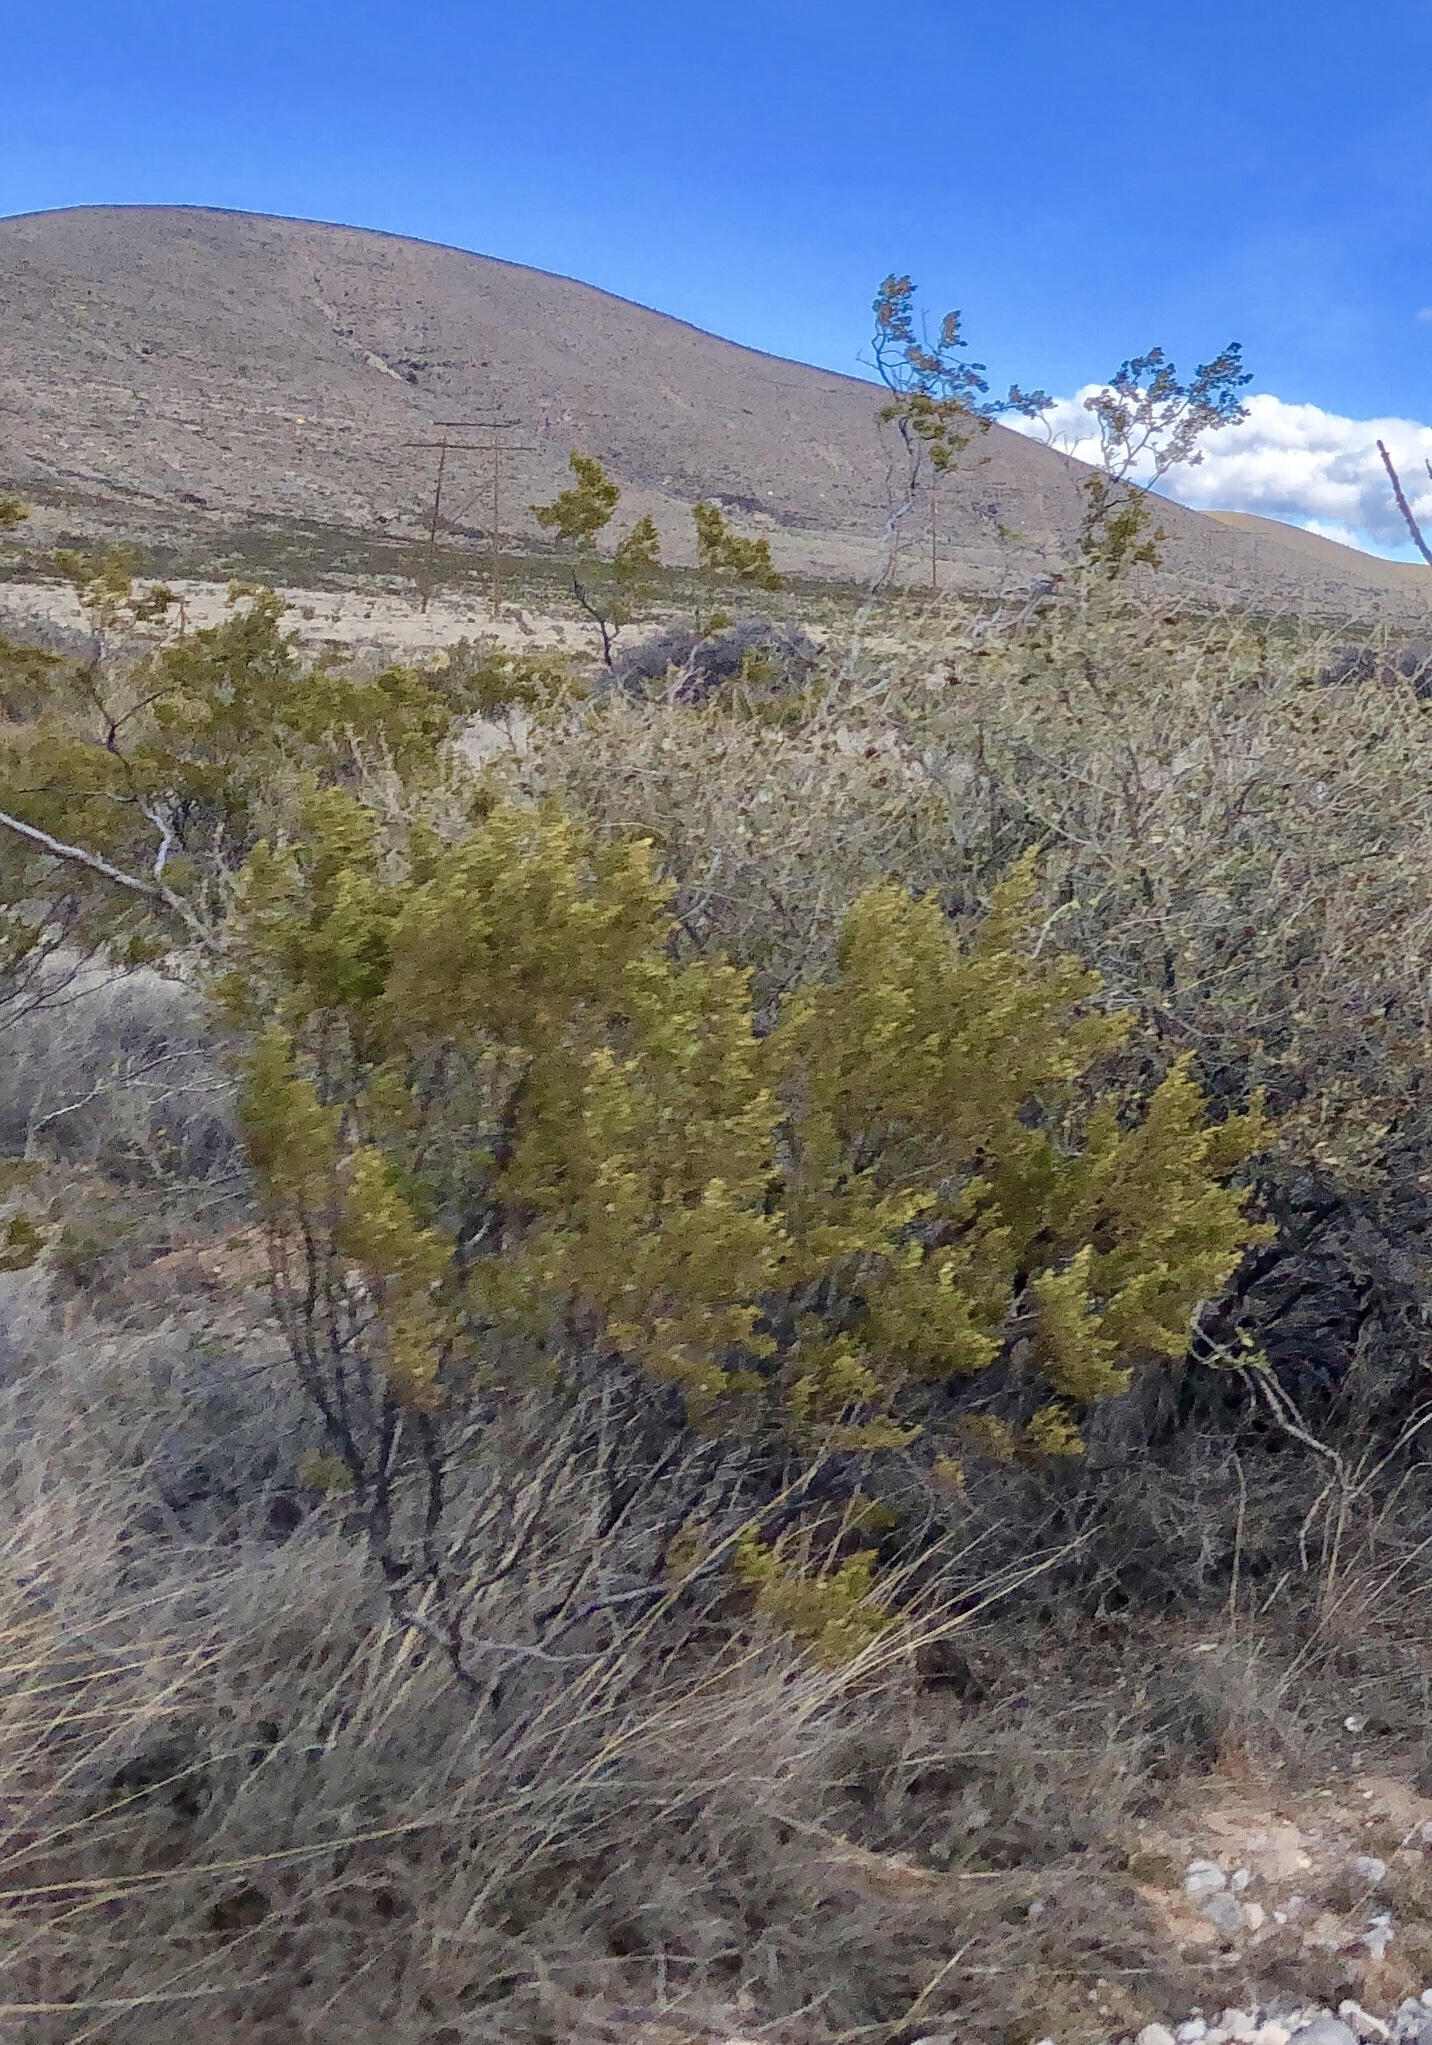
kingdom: Plantae
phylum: Tracheophyta
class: Magnoliopsida
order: Zygophyllales
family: Zygophyllaceae
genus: Larrea
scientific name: Larrea tridentata
